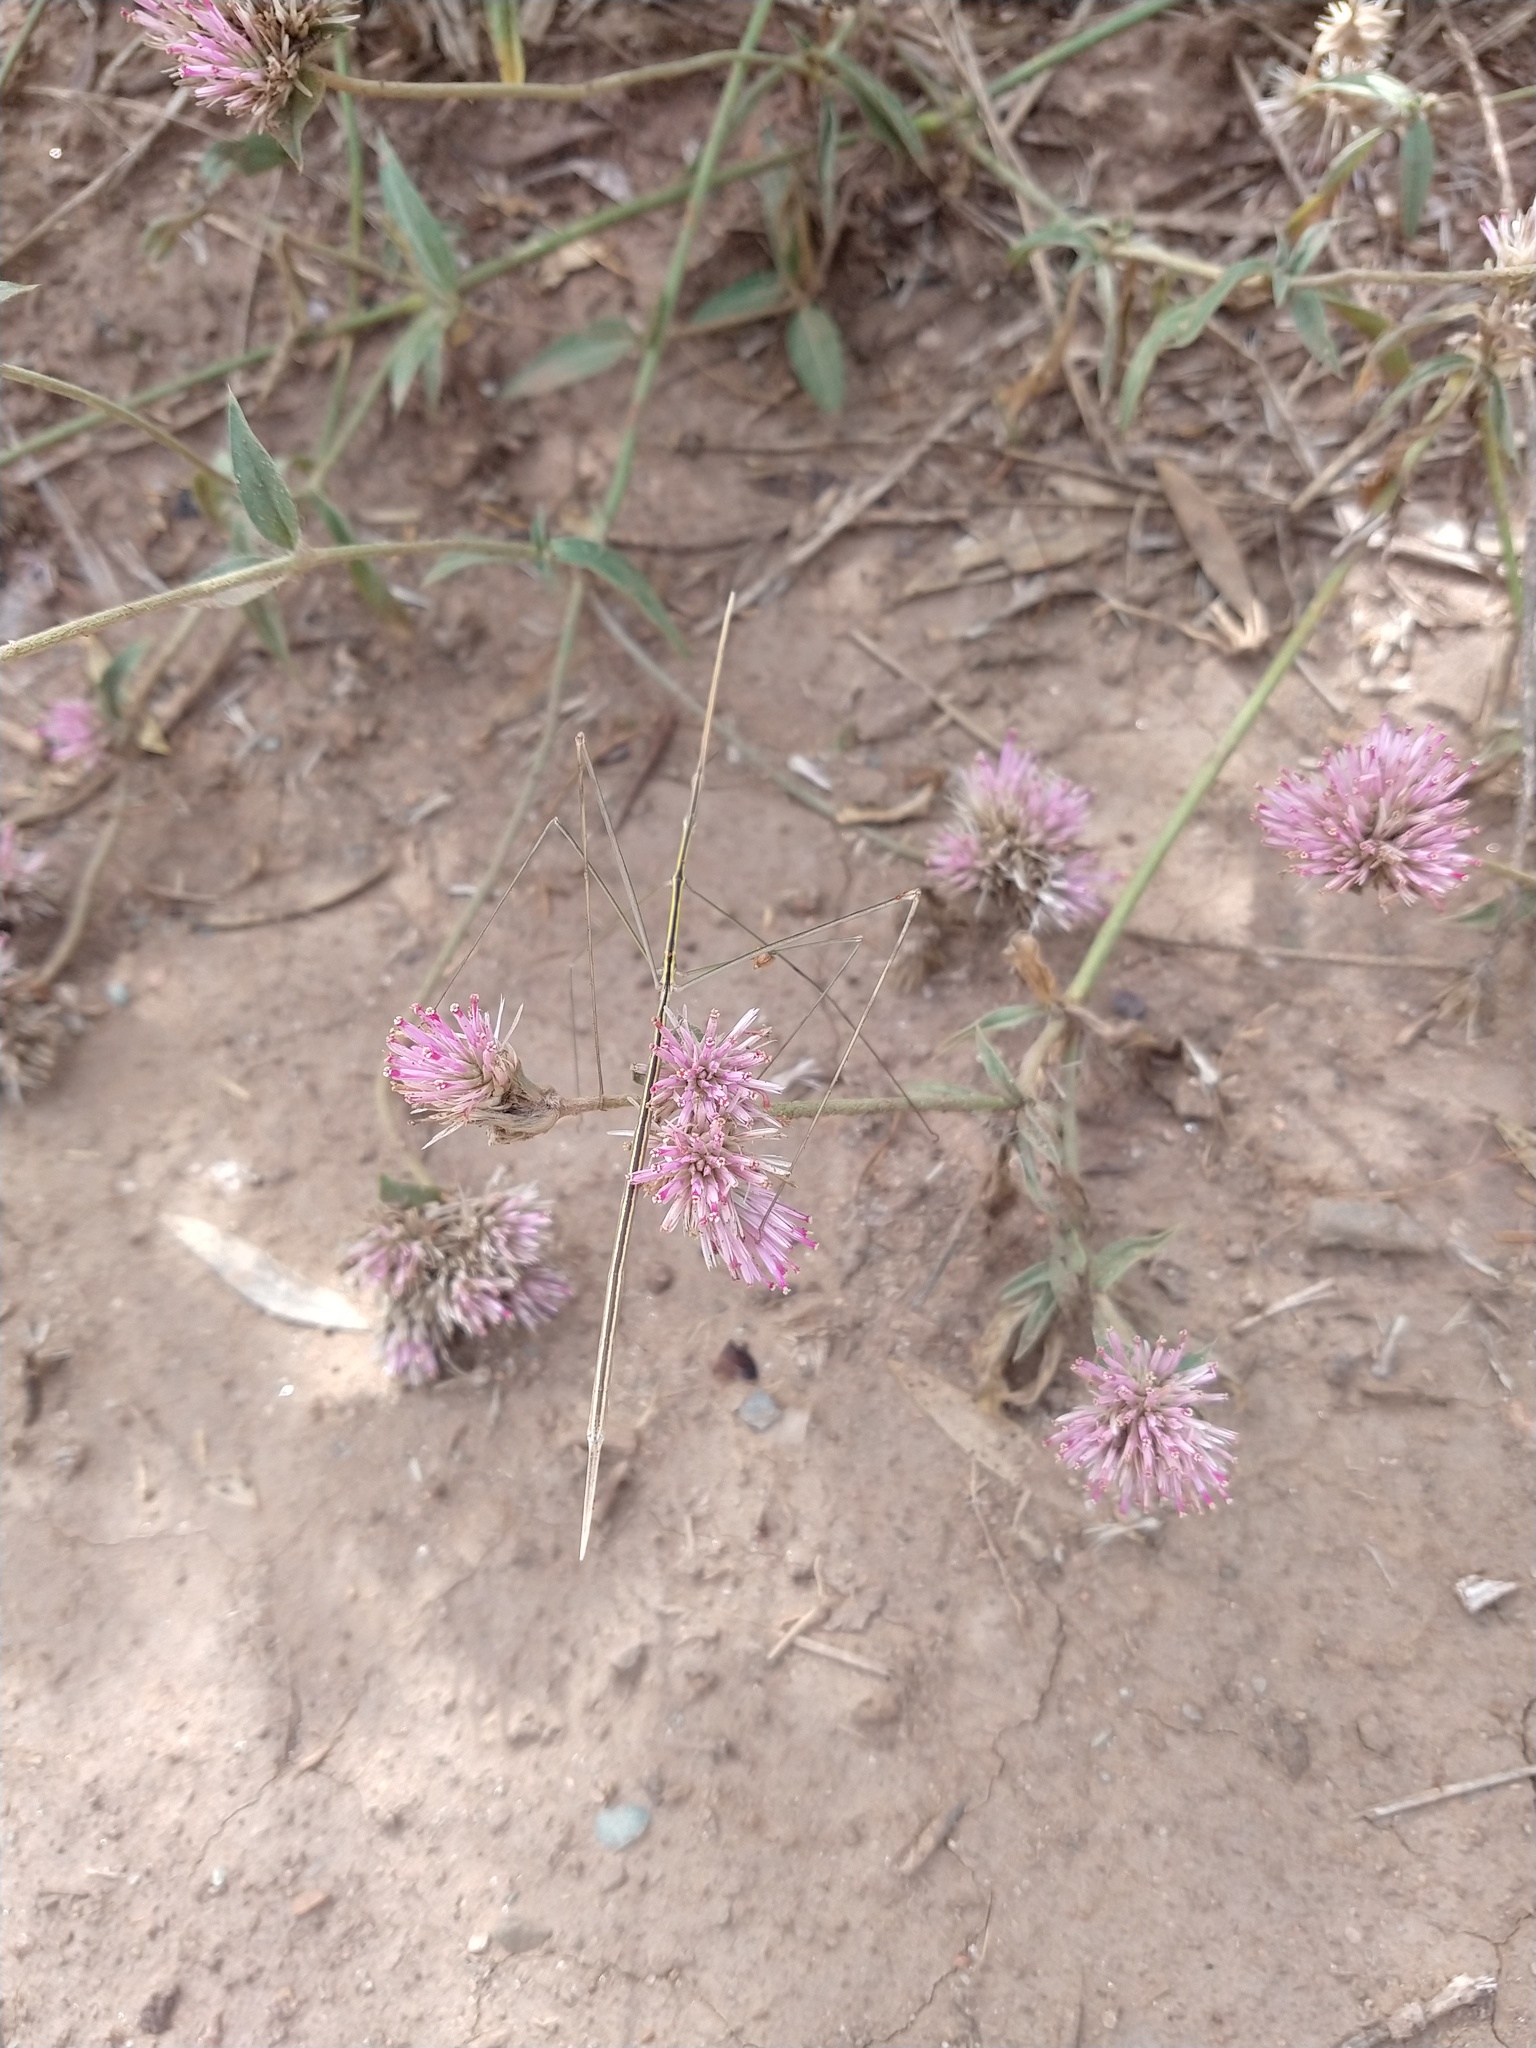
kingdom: Animalia
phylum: Arthropoda
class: Insecta
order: Orthoptera
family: Proscopiidae
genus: Carphoproscopia
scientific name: Carphoproscopia lancea
